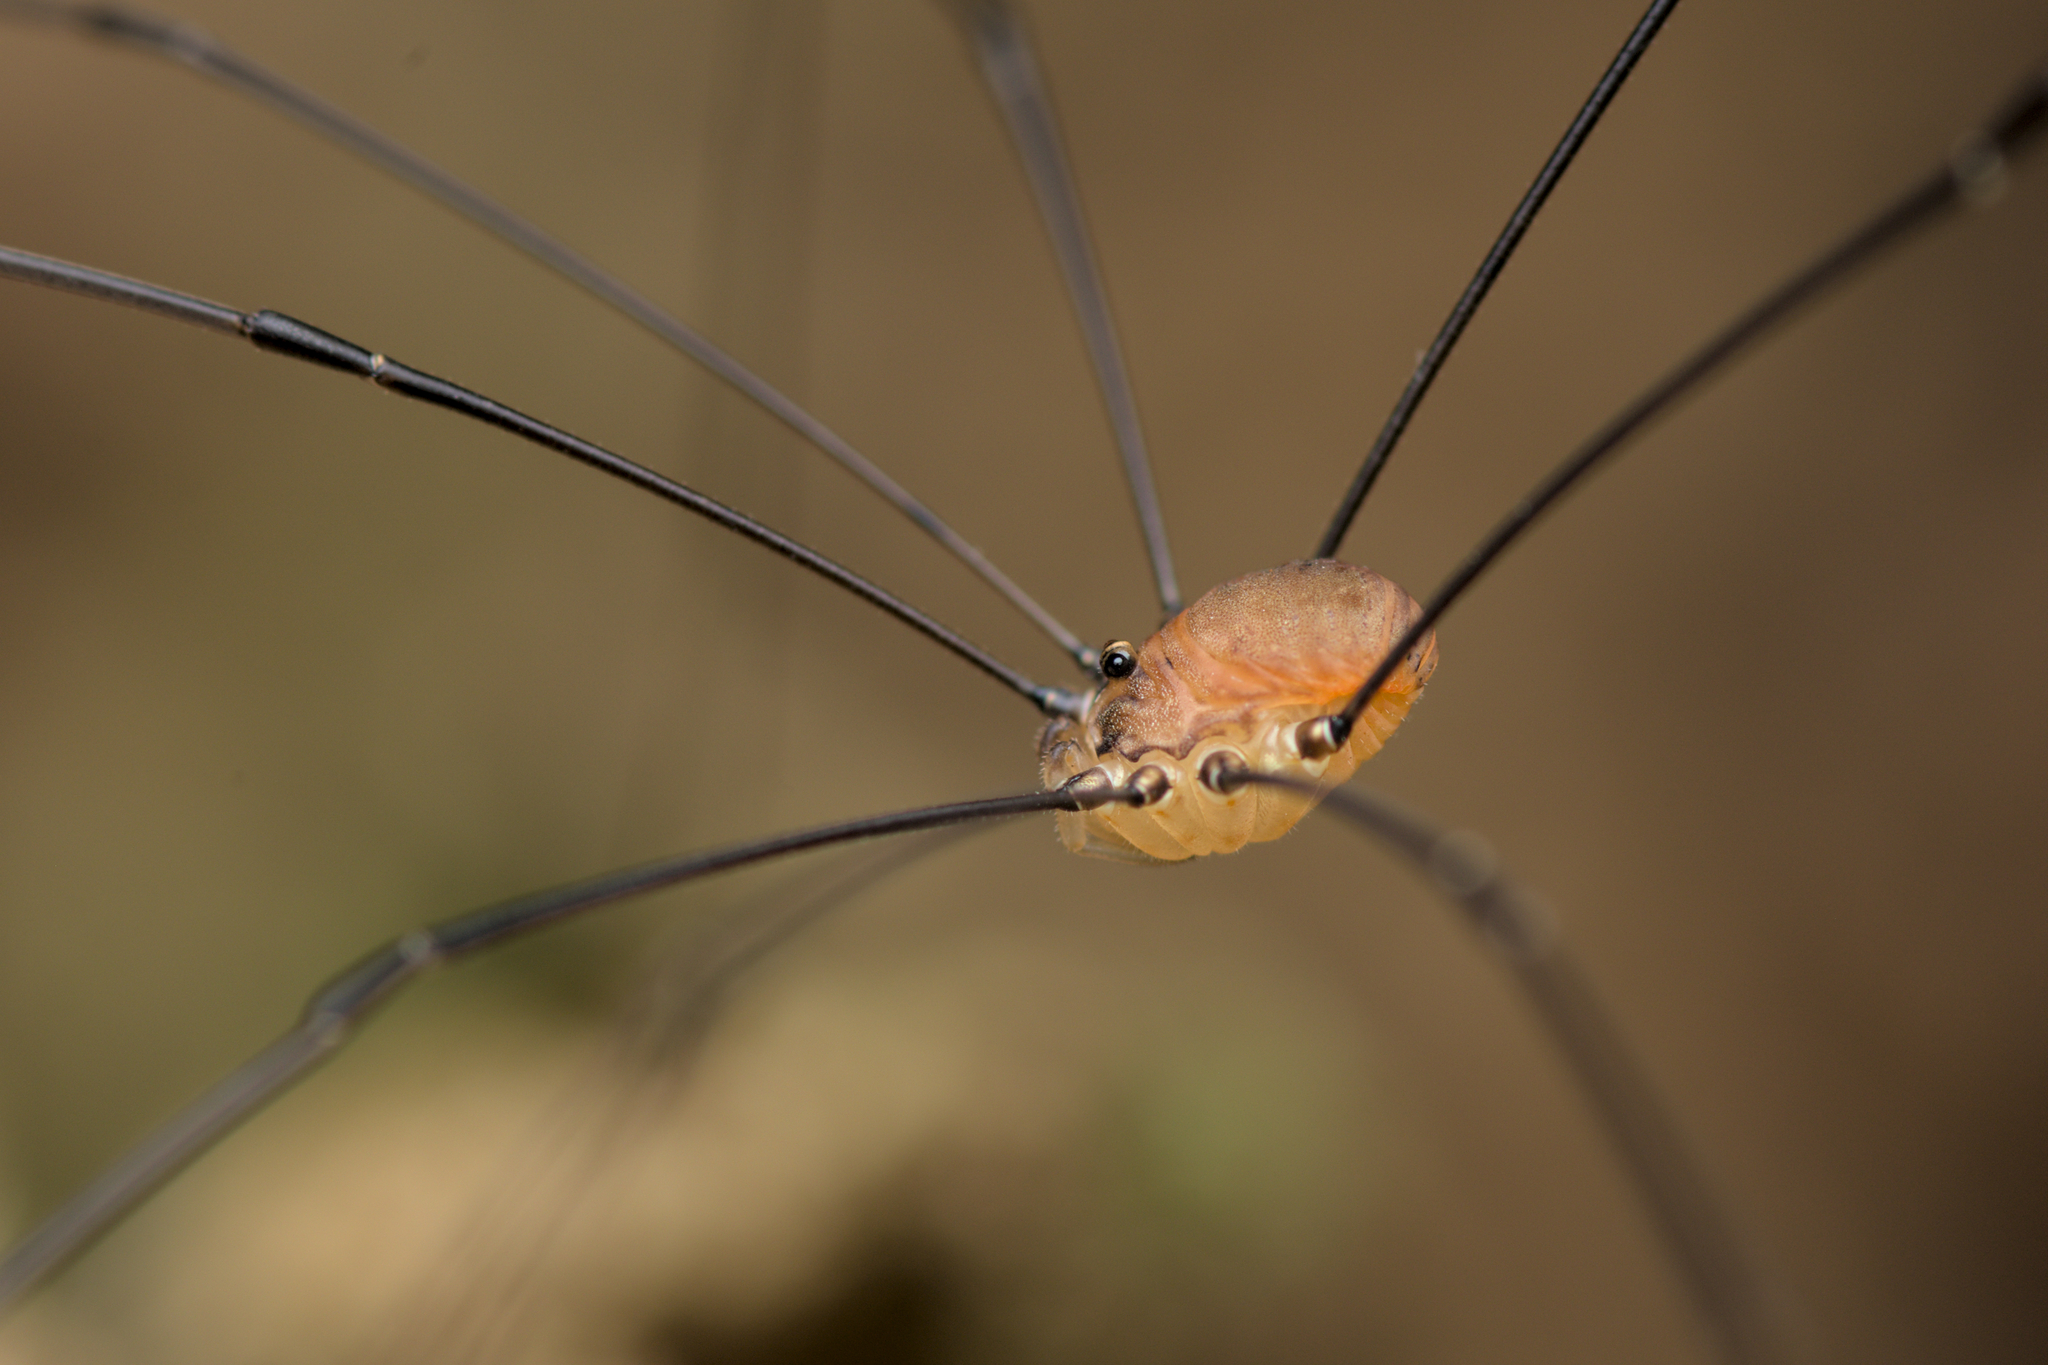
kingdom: Animalia
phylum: Arthropoda
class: Arachnida
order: Opiliones
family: Sclerosomatidae
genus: Leiobunum
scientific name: Leiobunum blackwalli
